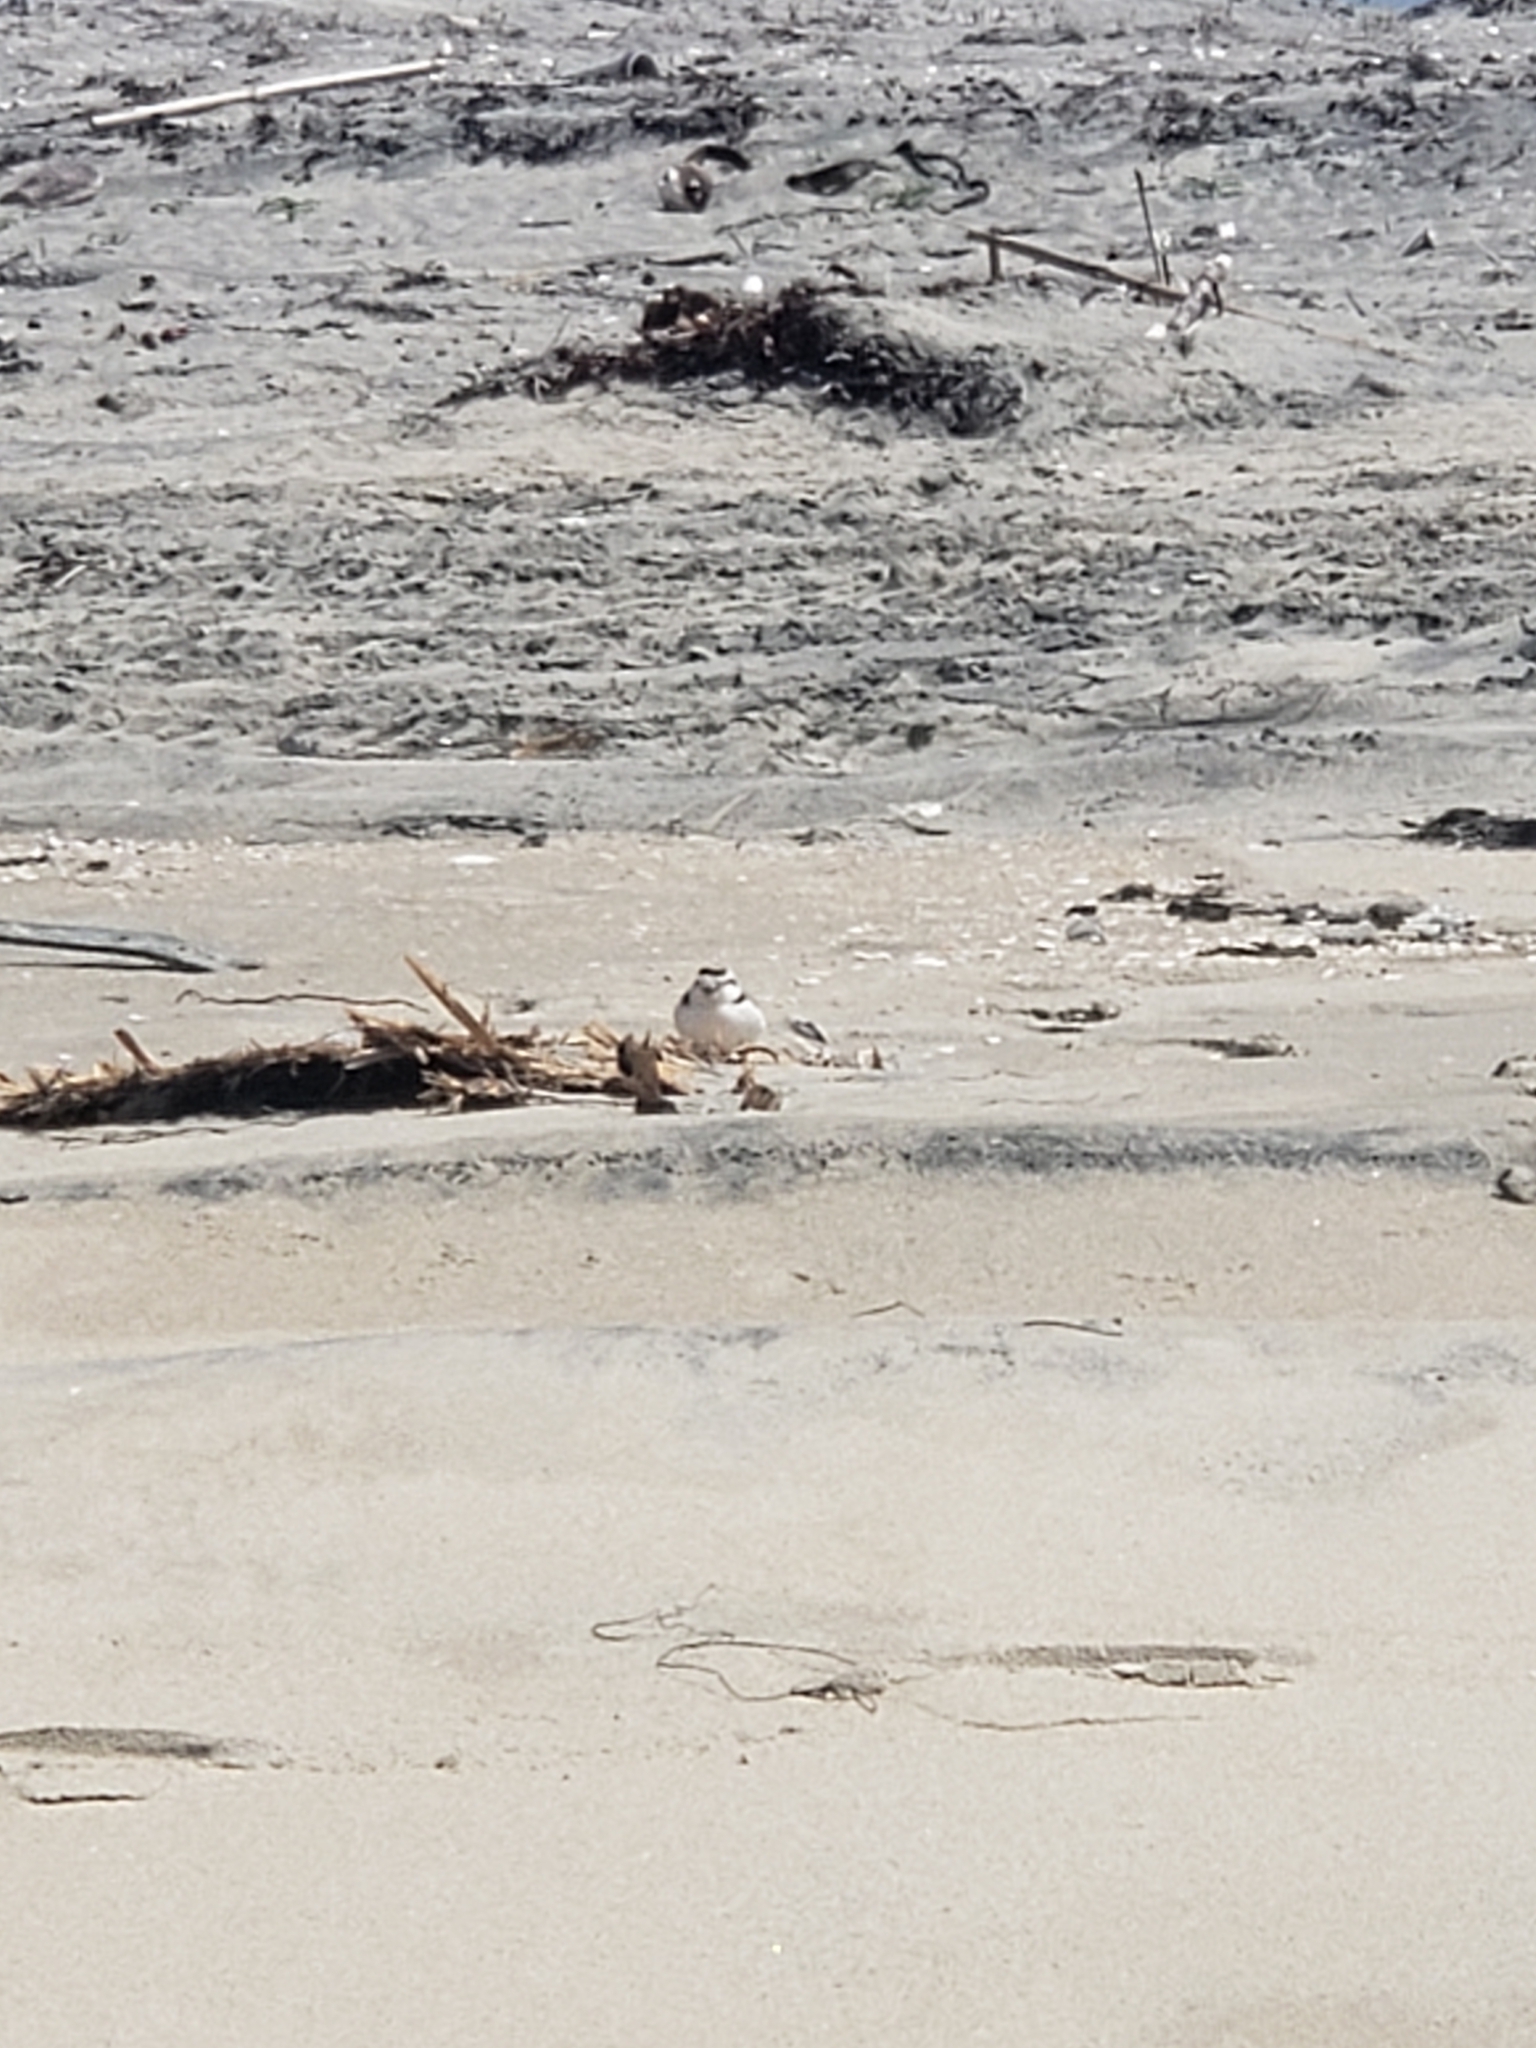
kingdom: Animalia
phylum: Chordata
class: Aves
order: Charadriiformes
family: Charadriidae
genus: Anarhynchus
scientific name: Anarhynchus
